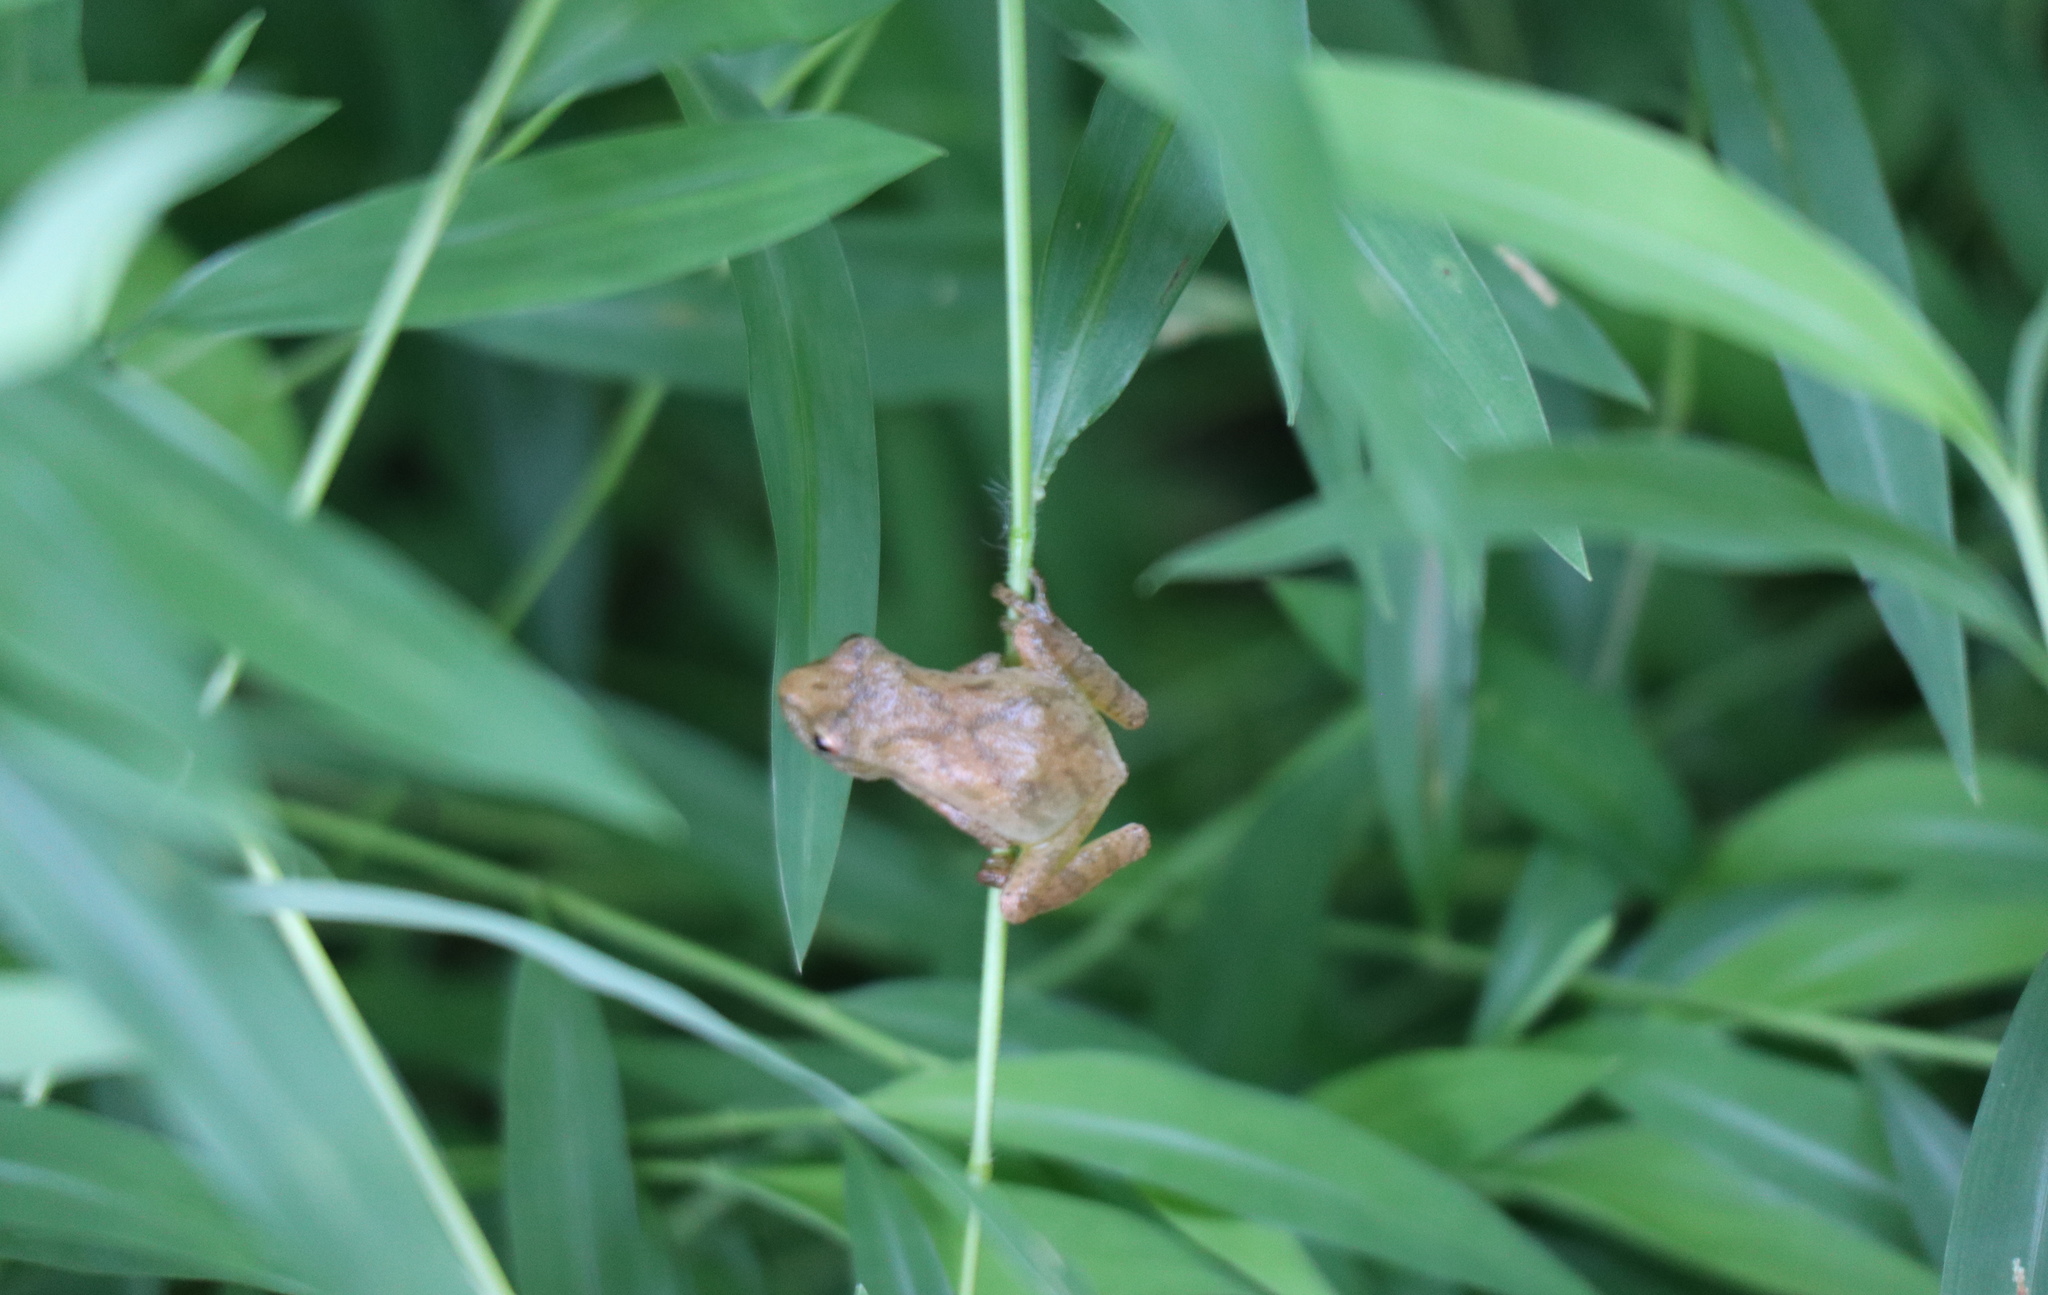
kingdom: Animalia
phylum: Chordata
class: Amphibia
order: Anura
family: Hylidae
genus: Pseudacris
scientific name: Pseudacris crucifer
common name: Spring peeper
